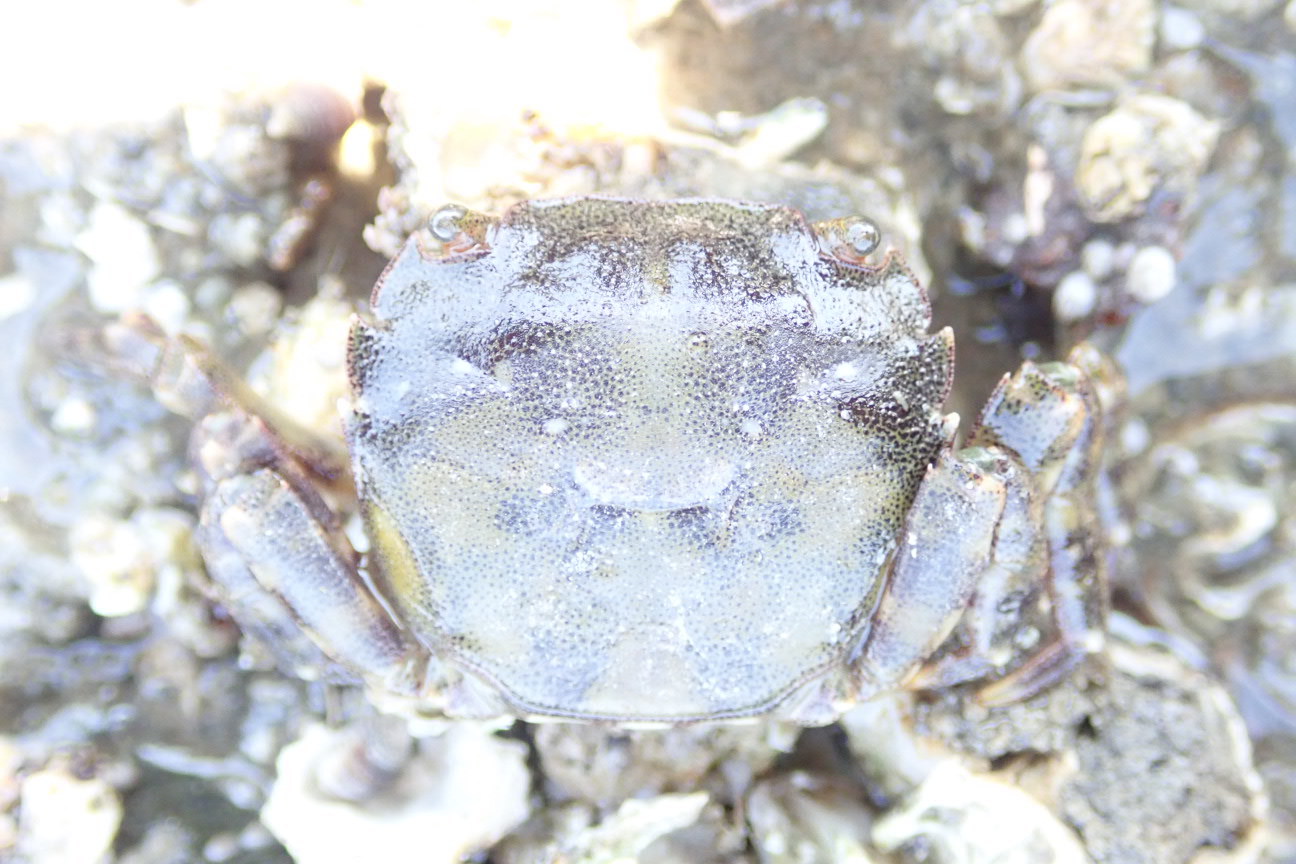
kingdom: Animalia
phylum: Arthropoda
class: Malacostraca
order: Decapoda
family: Varunidae
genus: Hemigrapsus
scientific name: Hemigrapsus sanguineus
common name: Asian shore crab
